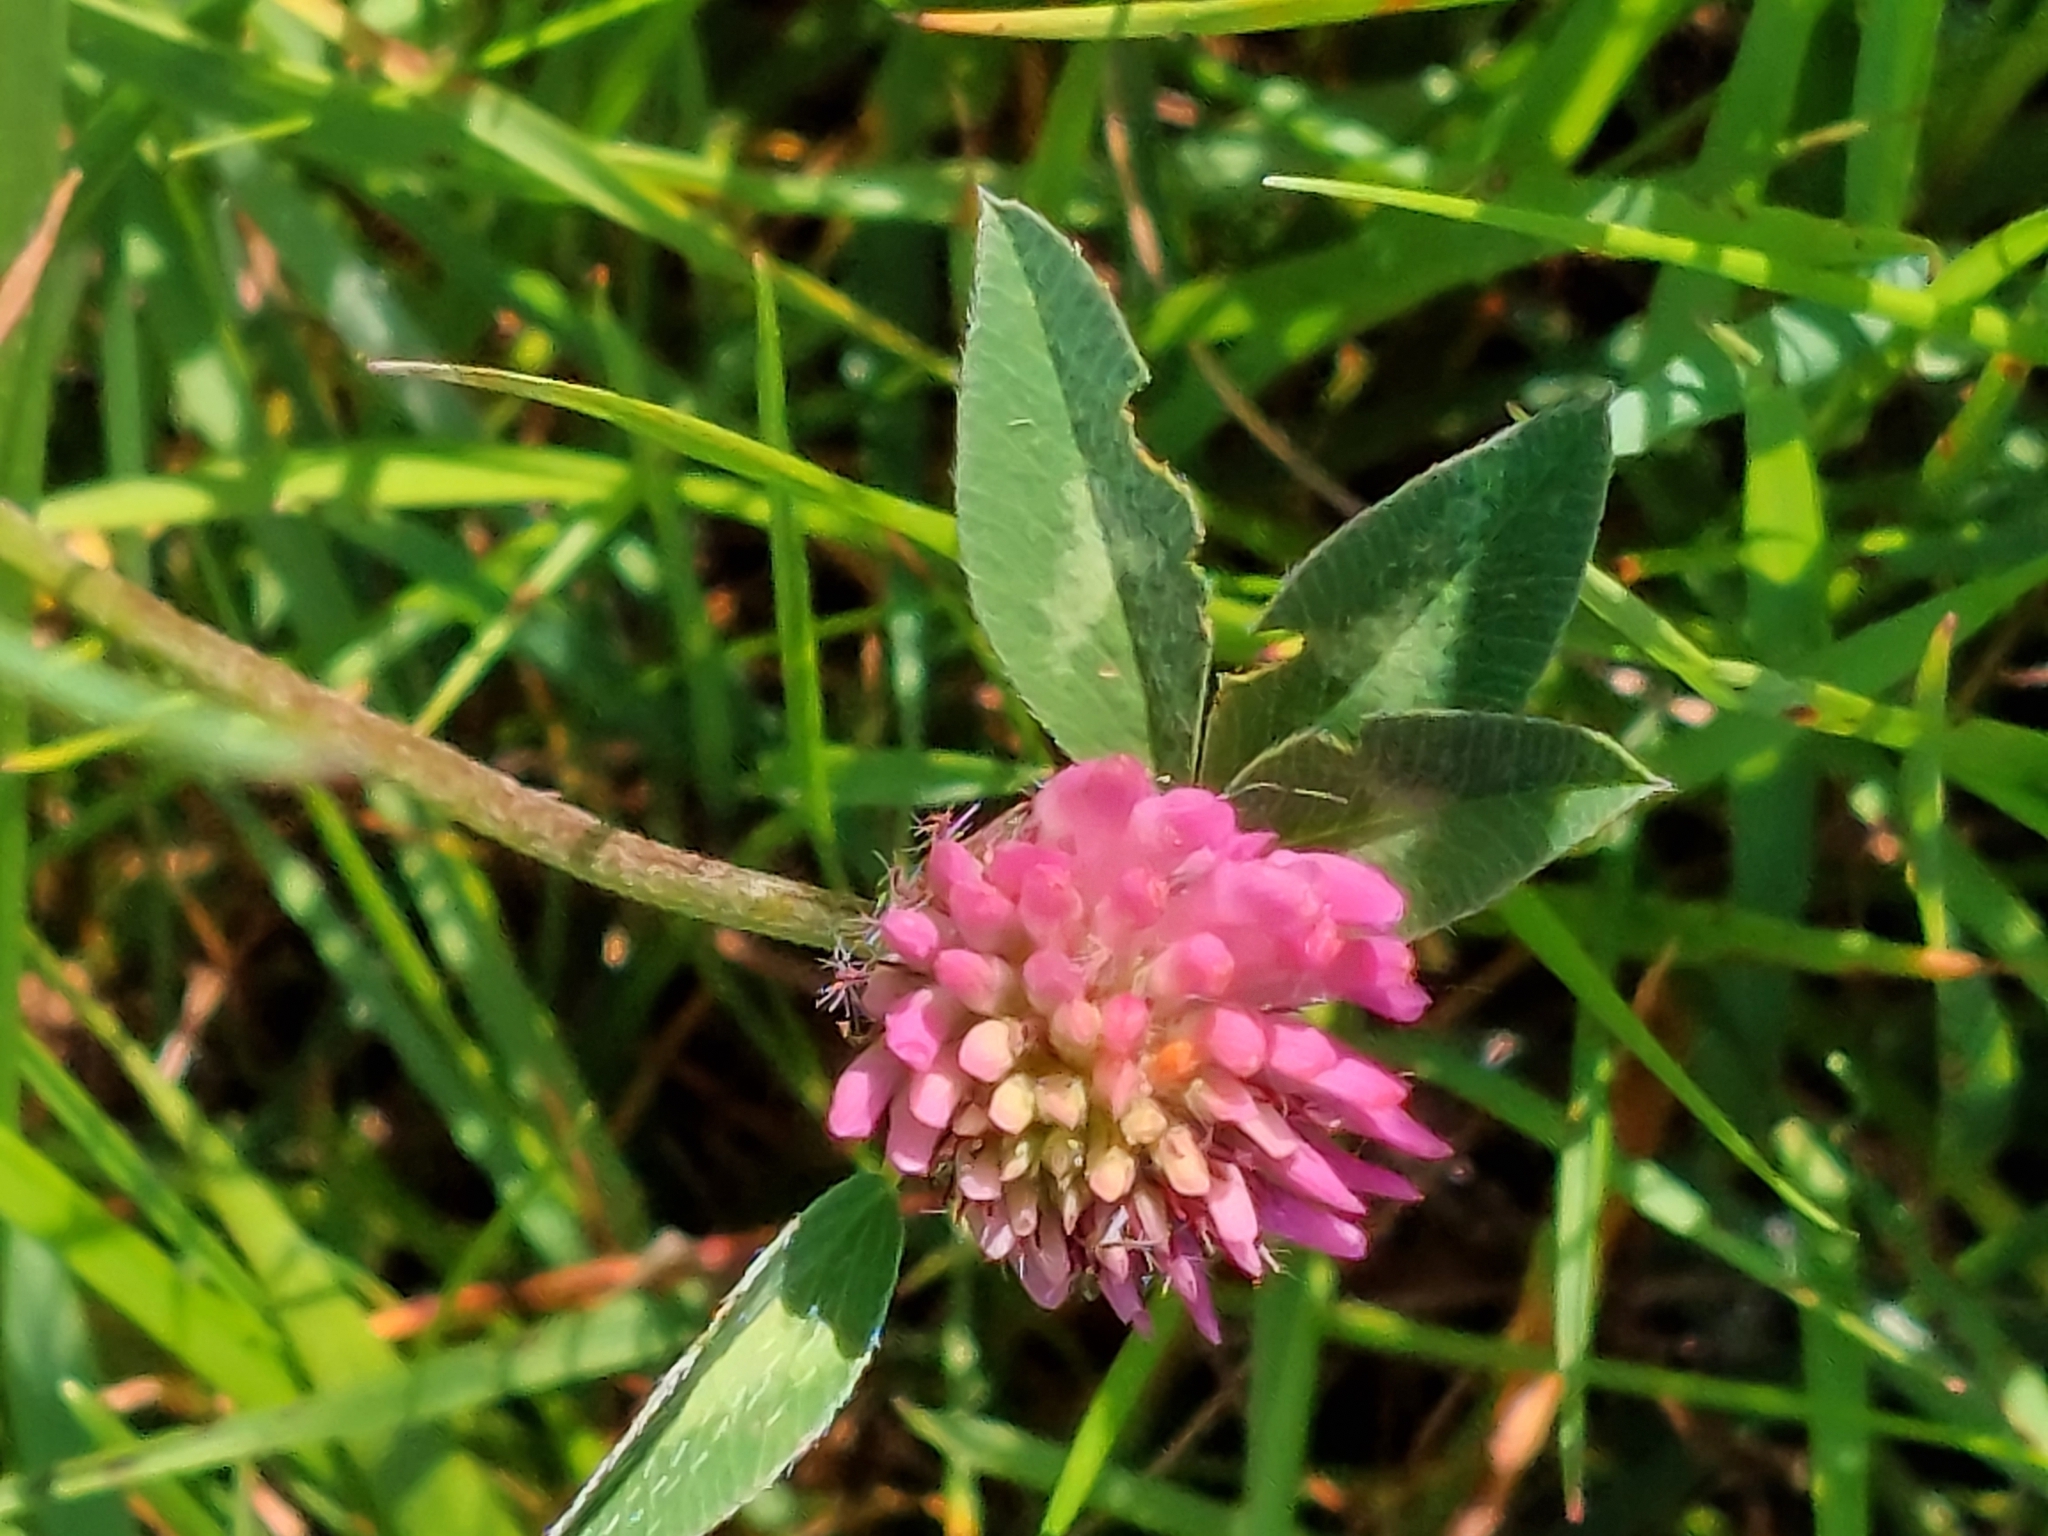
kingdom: Plantae
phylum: Tracheophyta
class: Magnoliopsida
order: Fabales
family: Fabaceae
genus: Trifolium
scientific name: Trifolium pratense
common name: Red clover
